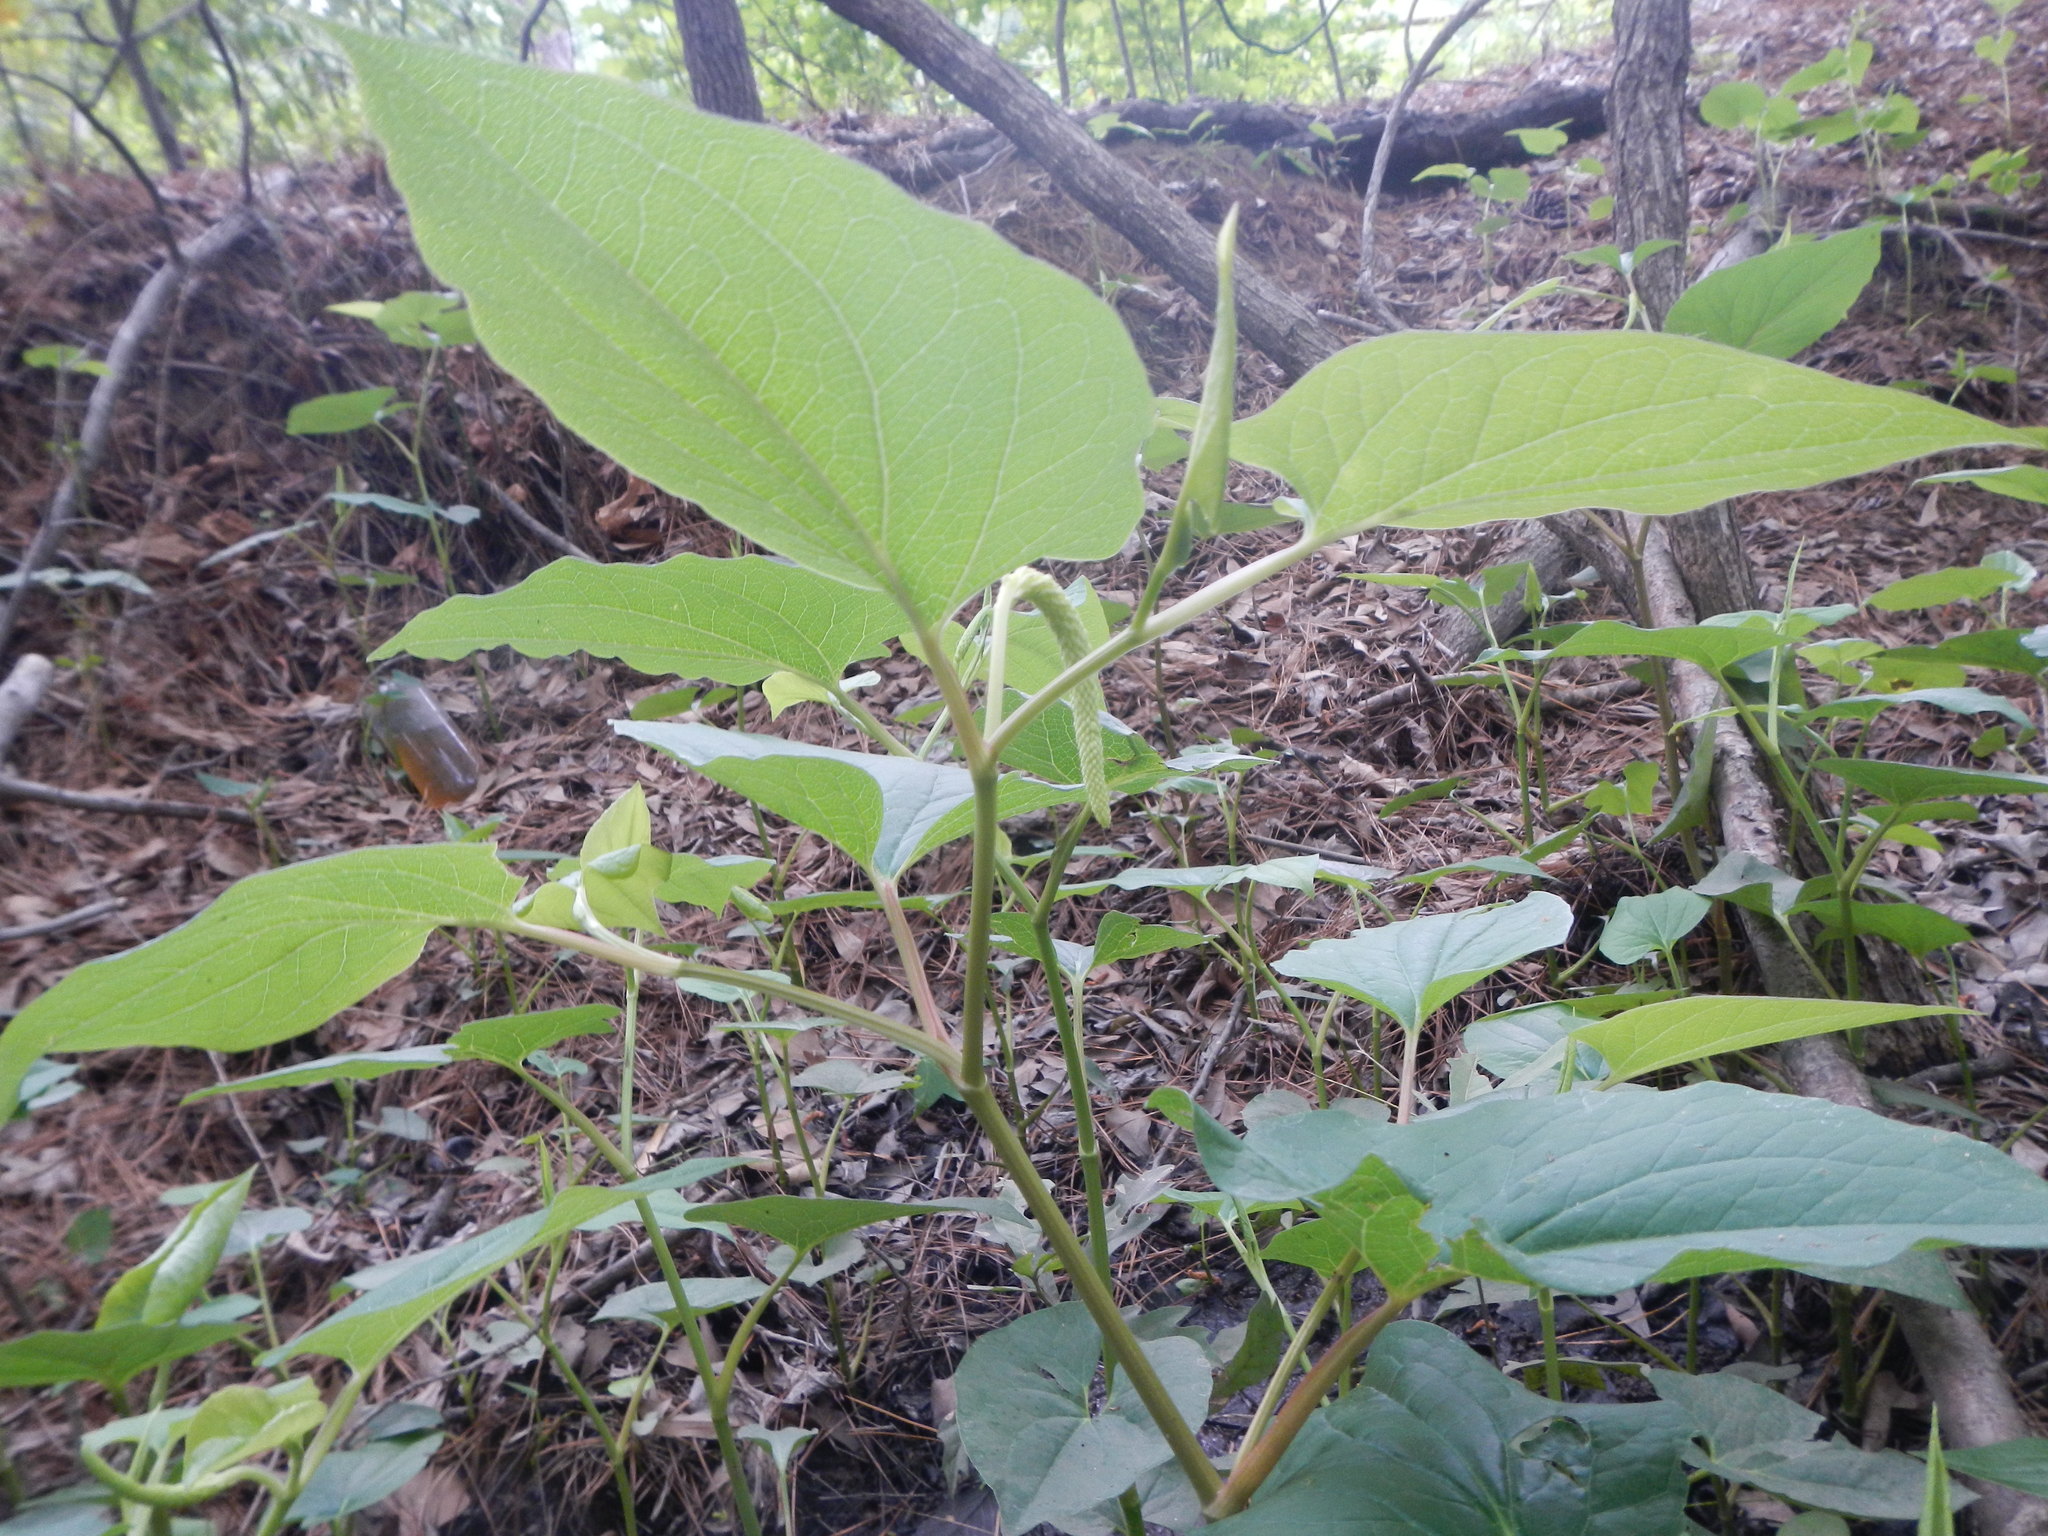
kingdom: Plantae
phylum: Tracheophyta
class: Magnoliopsida
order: Piperales
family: Saururaceae
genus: Saururus
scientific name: Saururus cernuus
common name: Lizard's-tail
